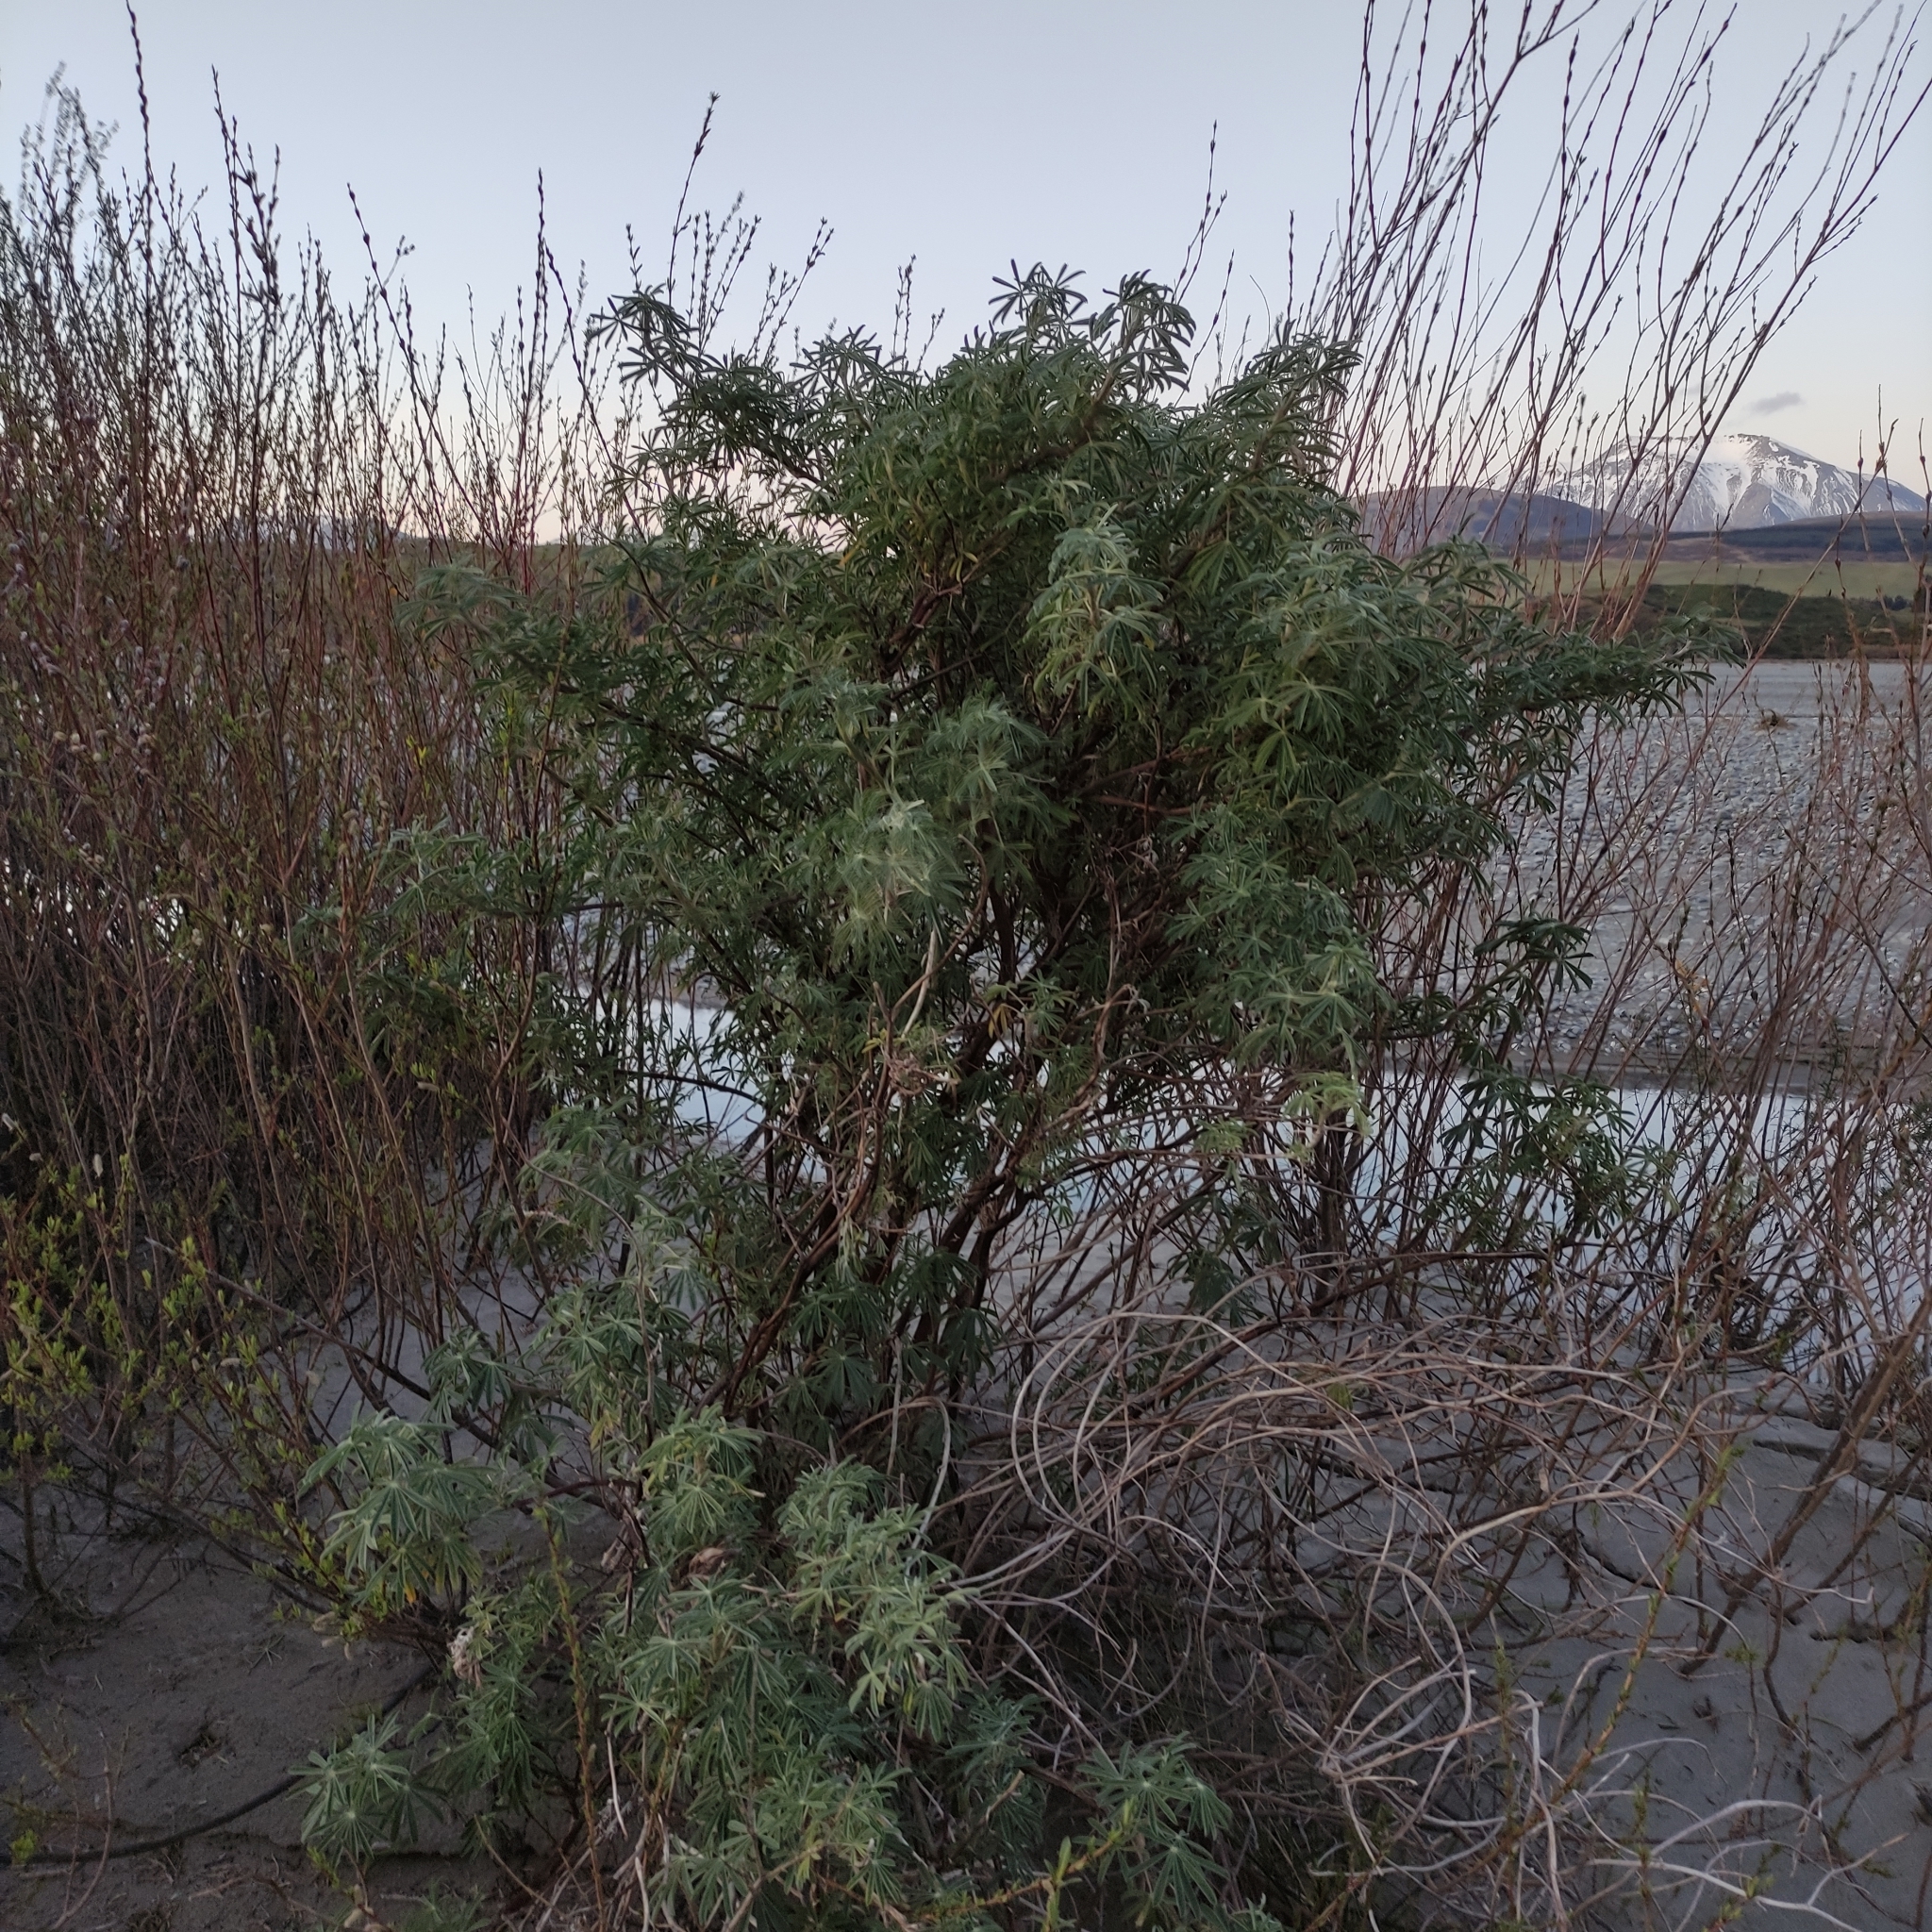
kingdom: Plantae
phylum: Tracheophyta
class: Magnoliopsida
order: Fabales
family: Fabaceae
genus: Lupinus
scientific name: Lupinus arboreus
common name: Yellow bush lupine
